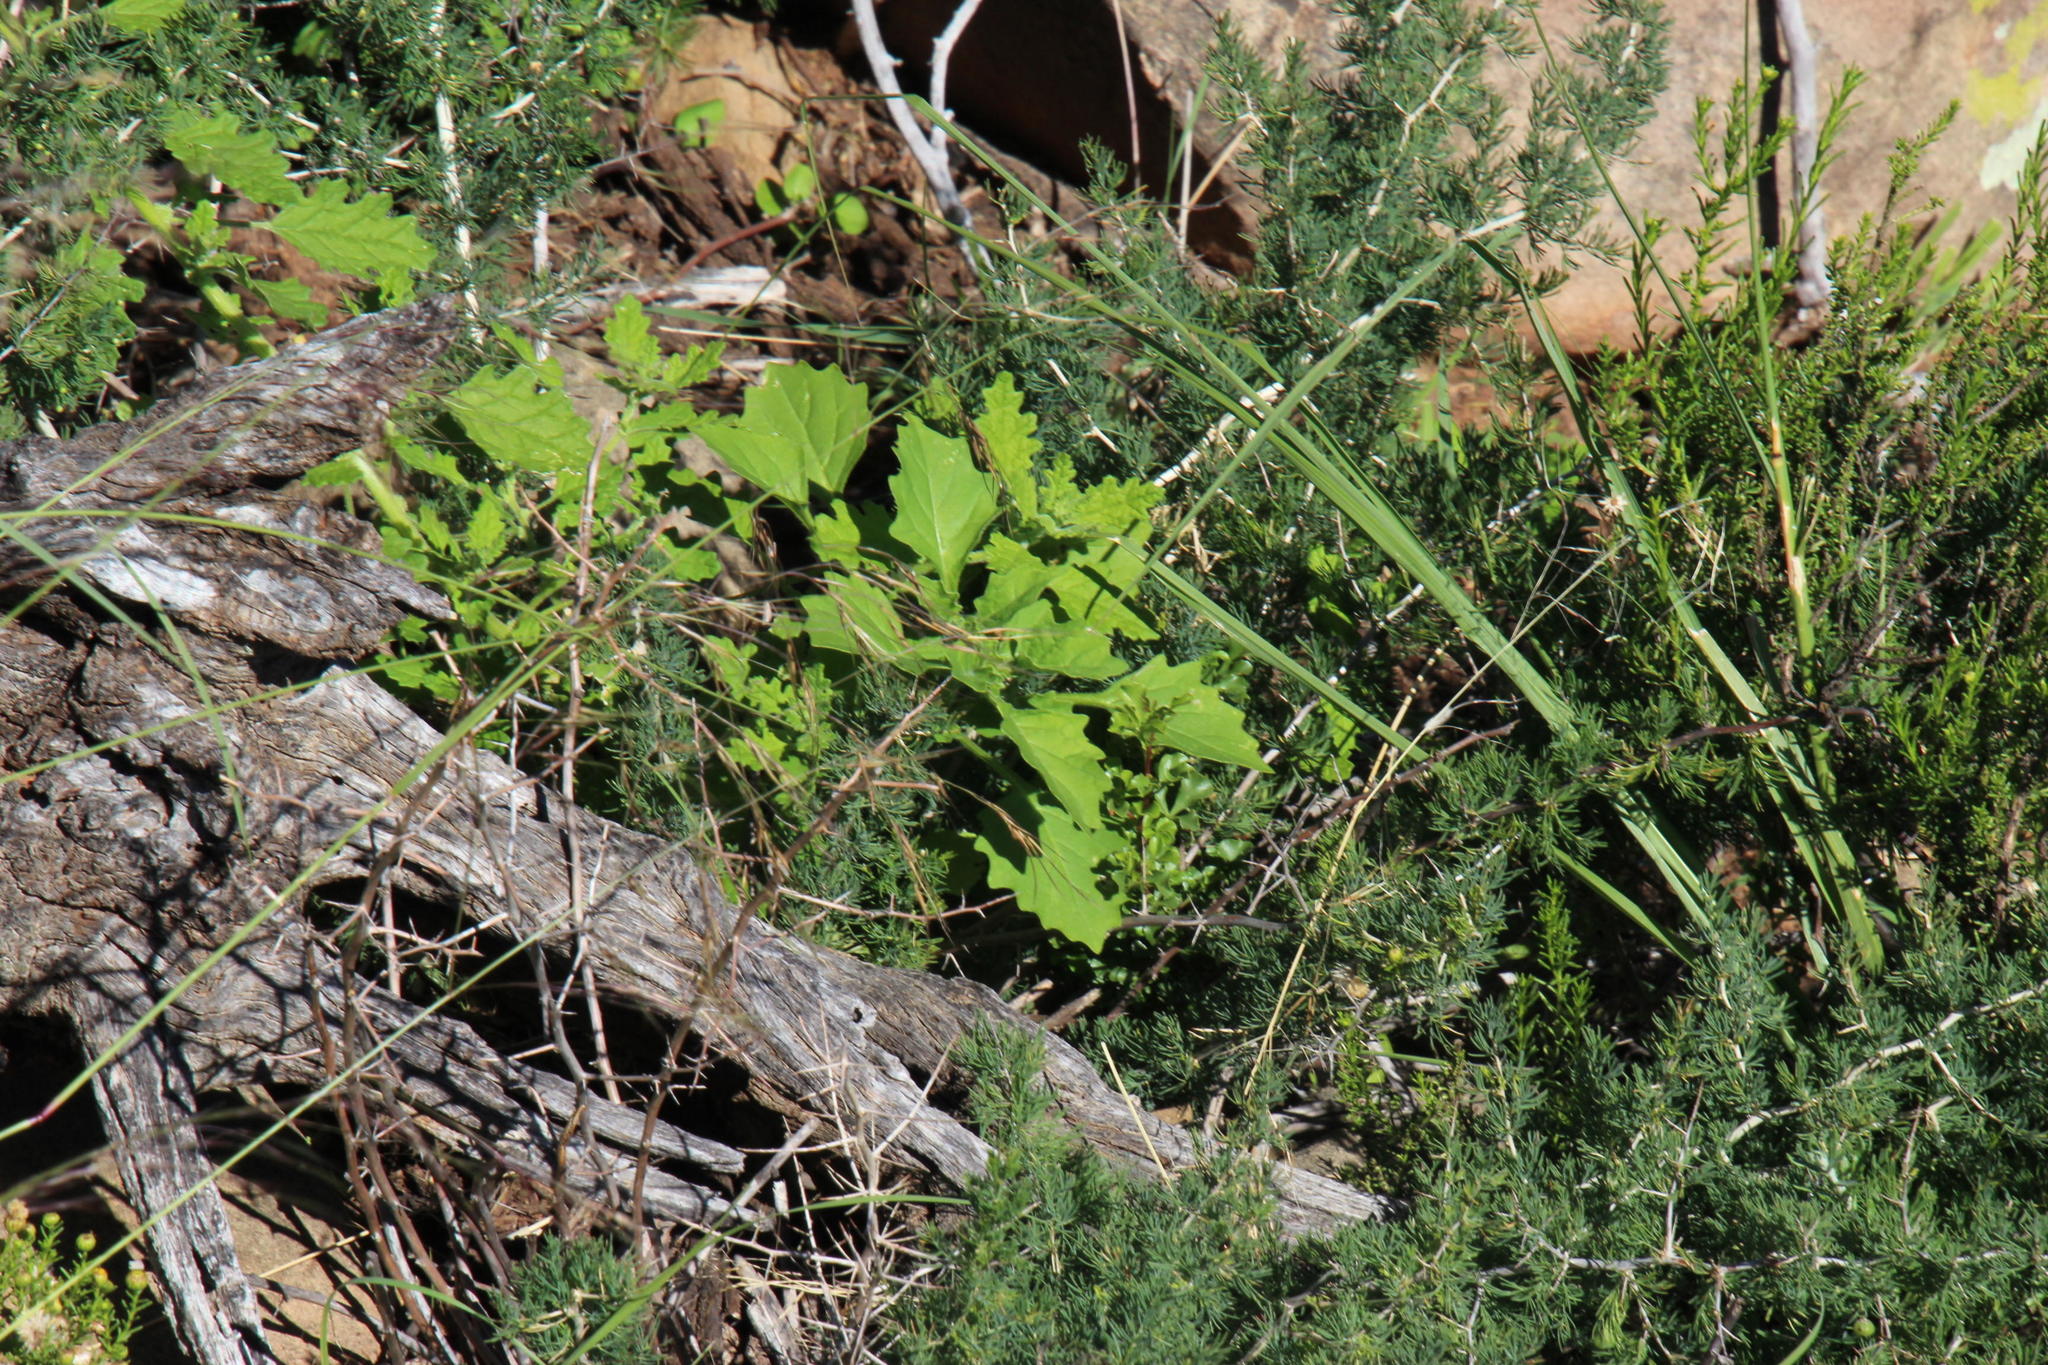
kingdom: Plantae
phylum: Tracheophyta
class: Magnoliopsida
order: Solanales
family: Solanaceae
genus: Solanum
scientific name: Solanum retroflexum
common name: Wonderberry
